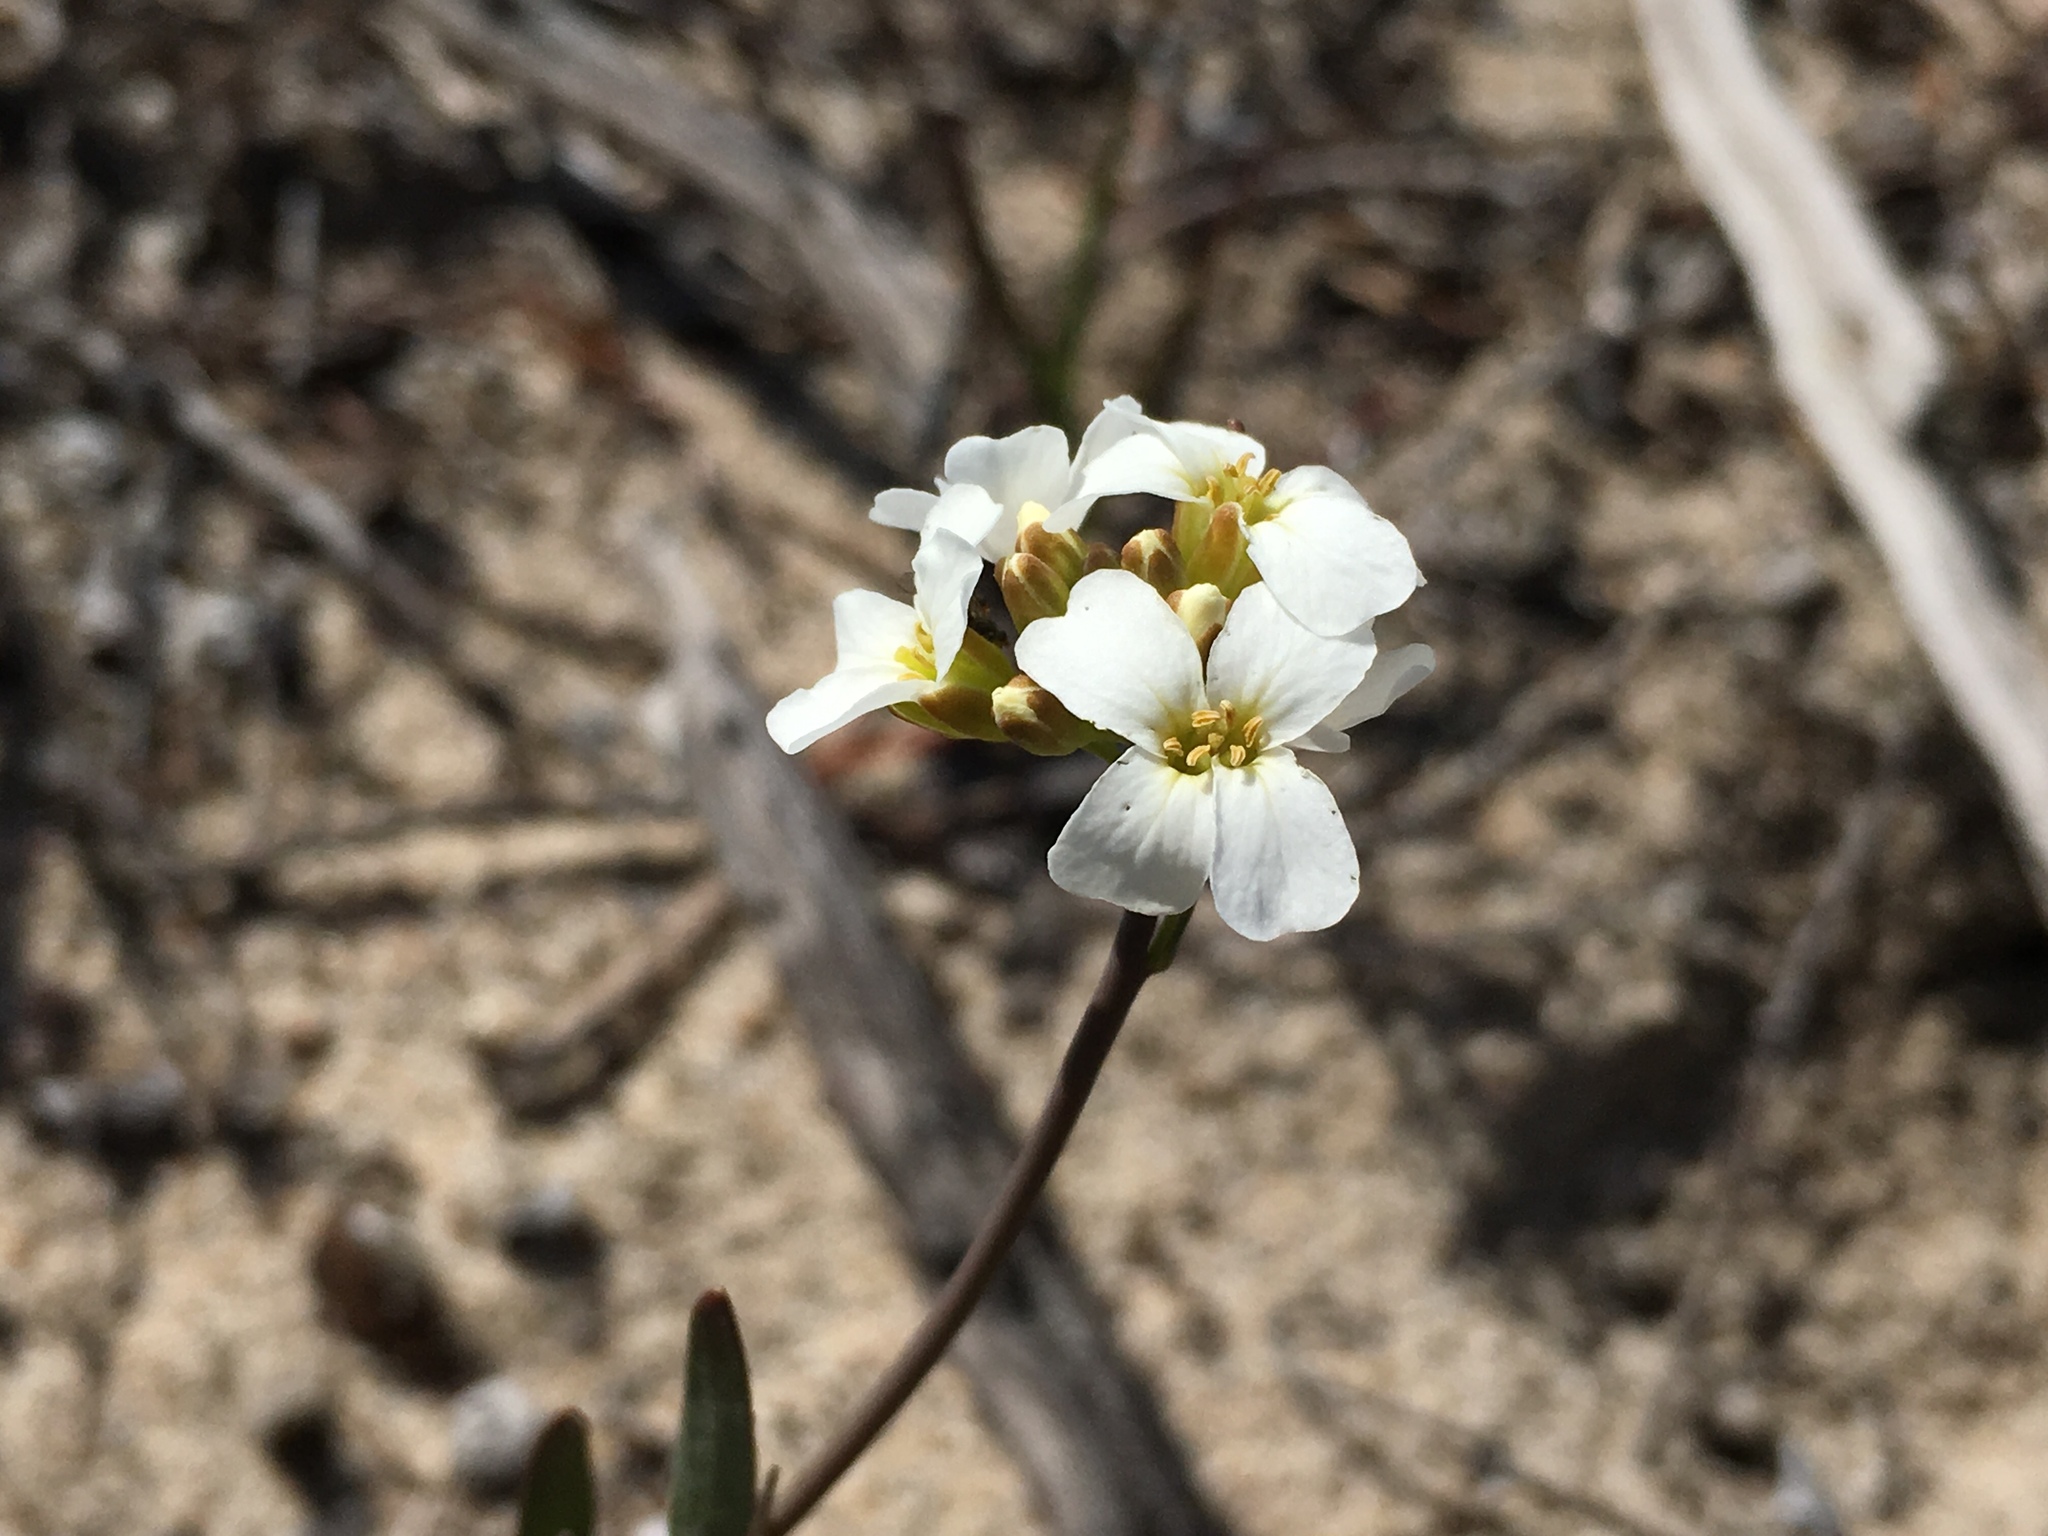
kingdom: Plantae
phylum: Tracheophyta
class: Magnoliopsida
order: Brassicales
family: Brassicaceae
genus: Arabidopsis
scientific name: Arabidopsis lyrata
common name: Lyrate rockcress
